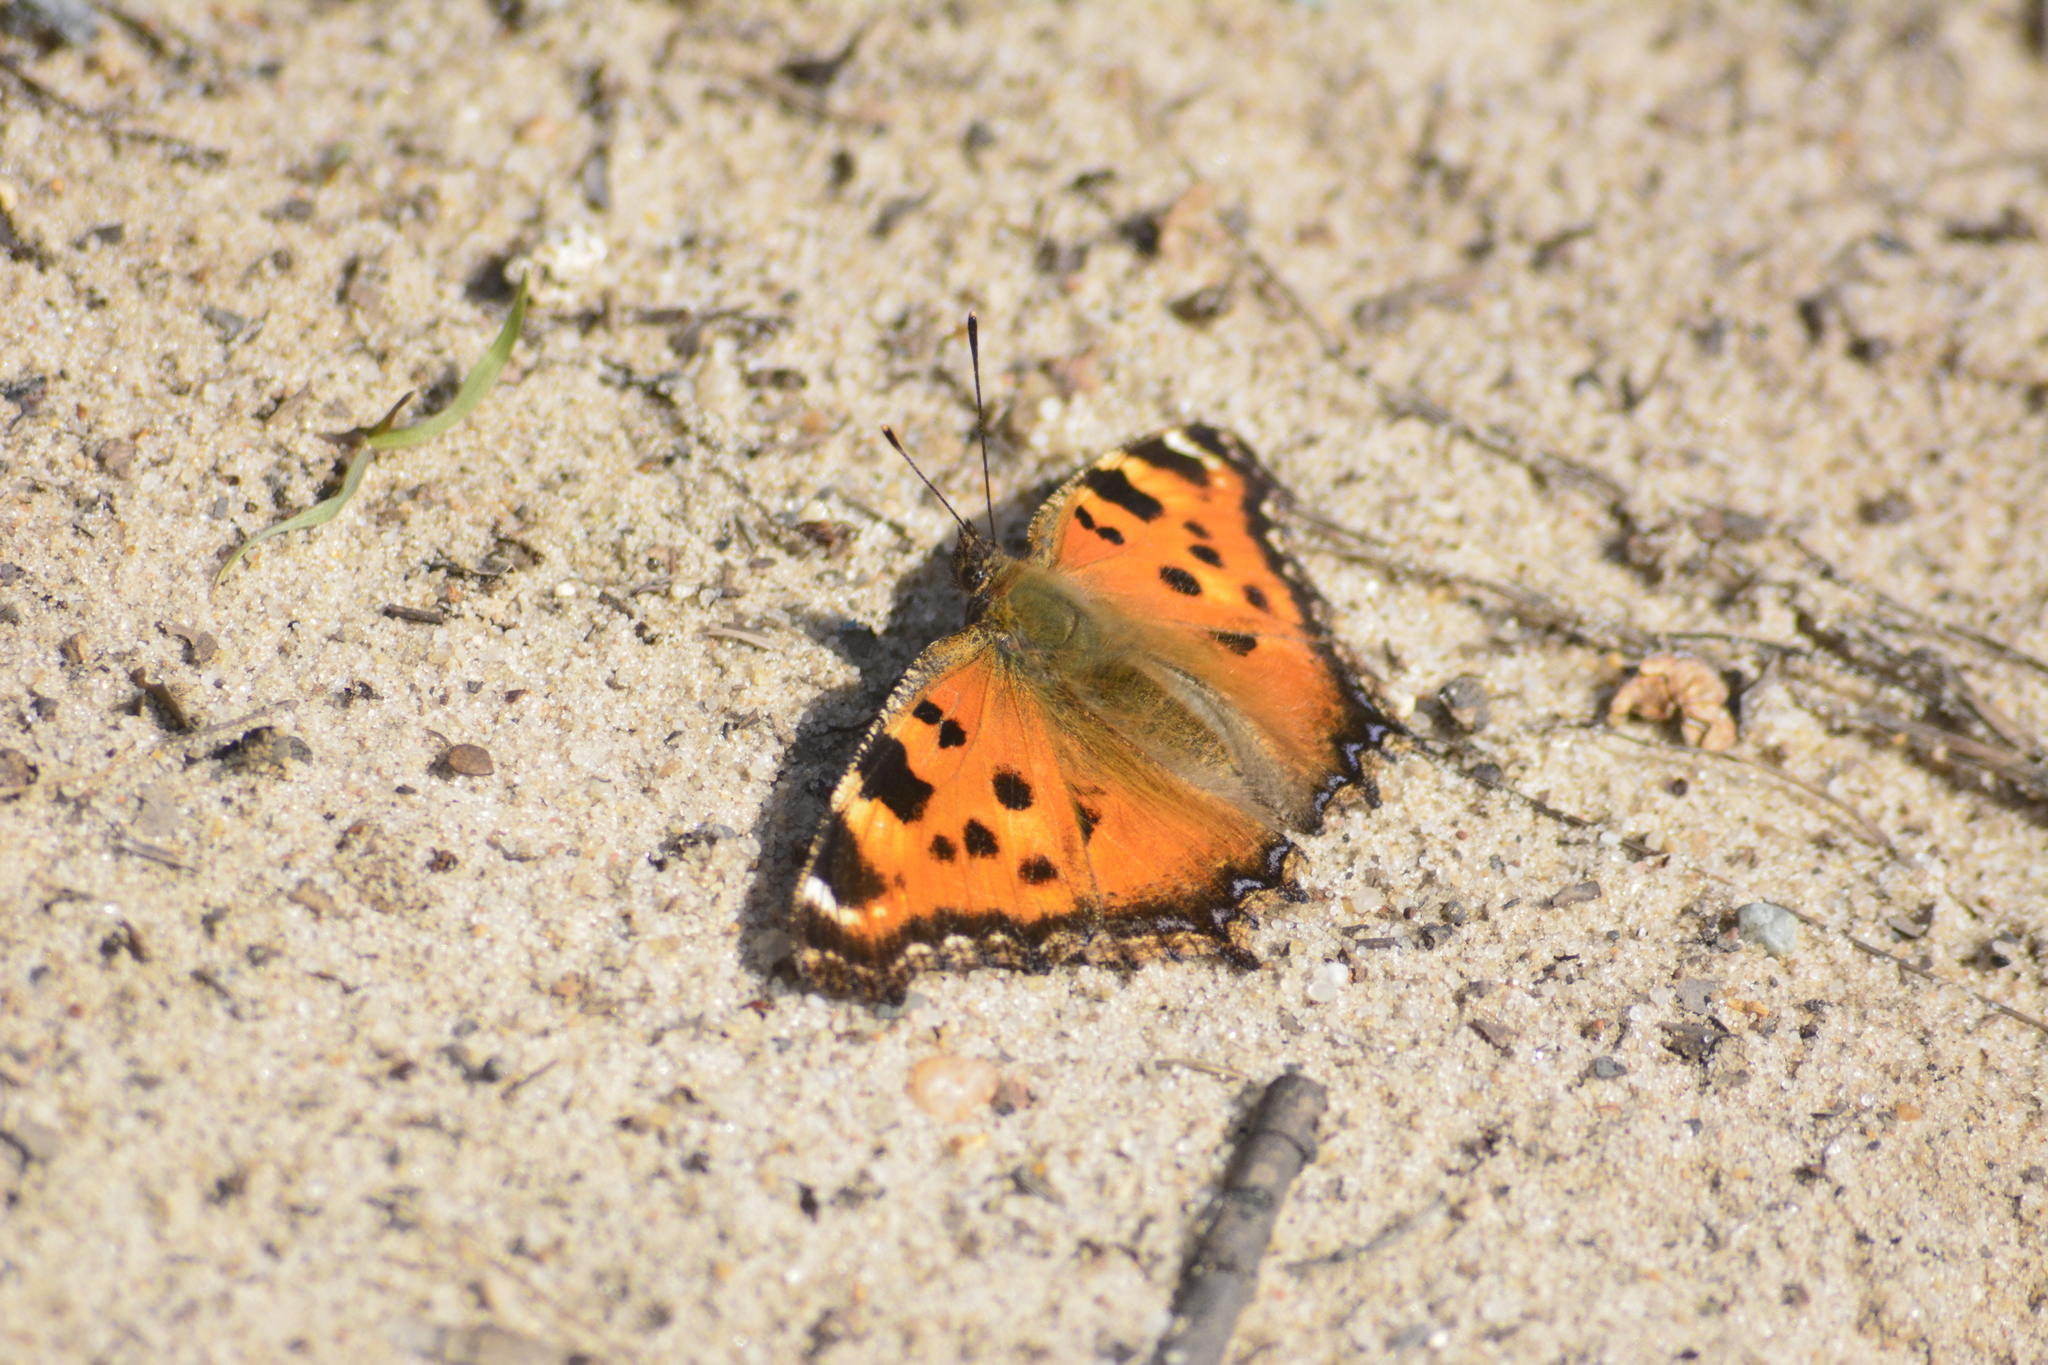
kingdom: Animalia
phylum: Arthropoda
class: Insecta
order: Lepidoptera
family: Nymphalidae
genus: Nymphalis
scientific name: Nymphalis xanthomelas
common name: Scarce tortoiseshell
